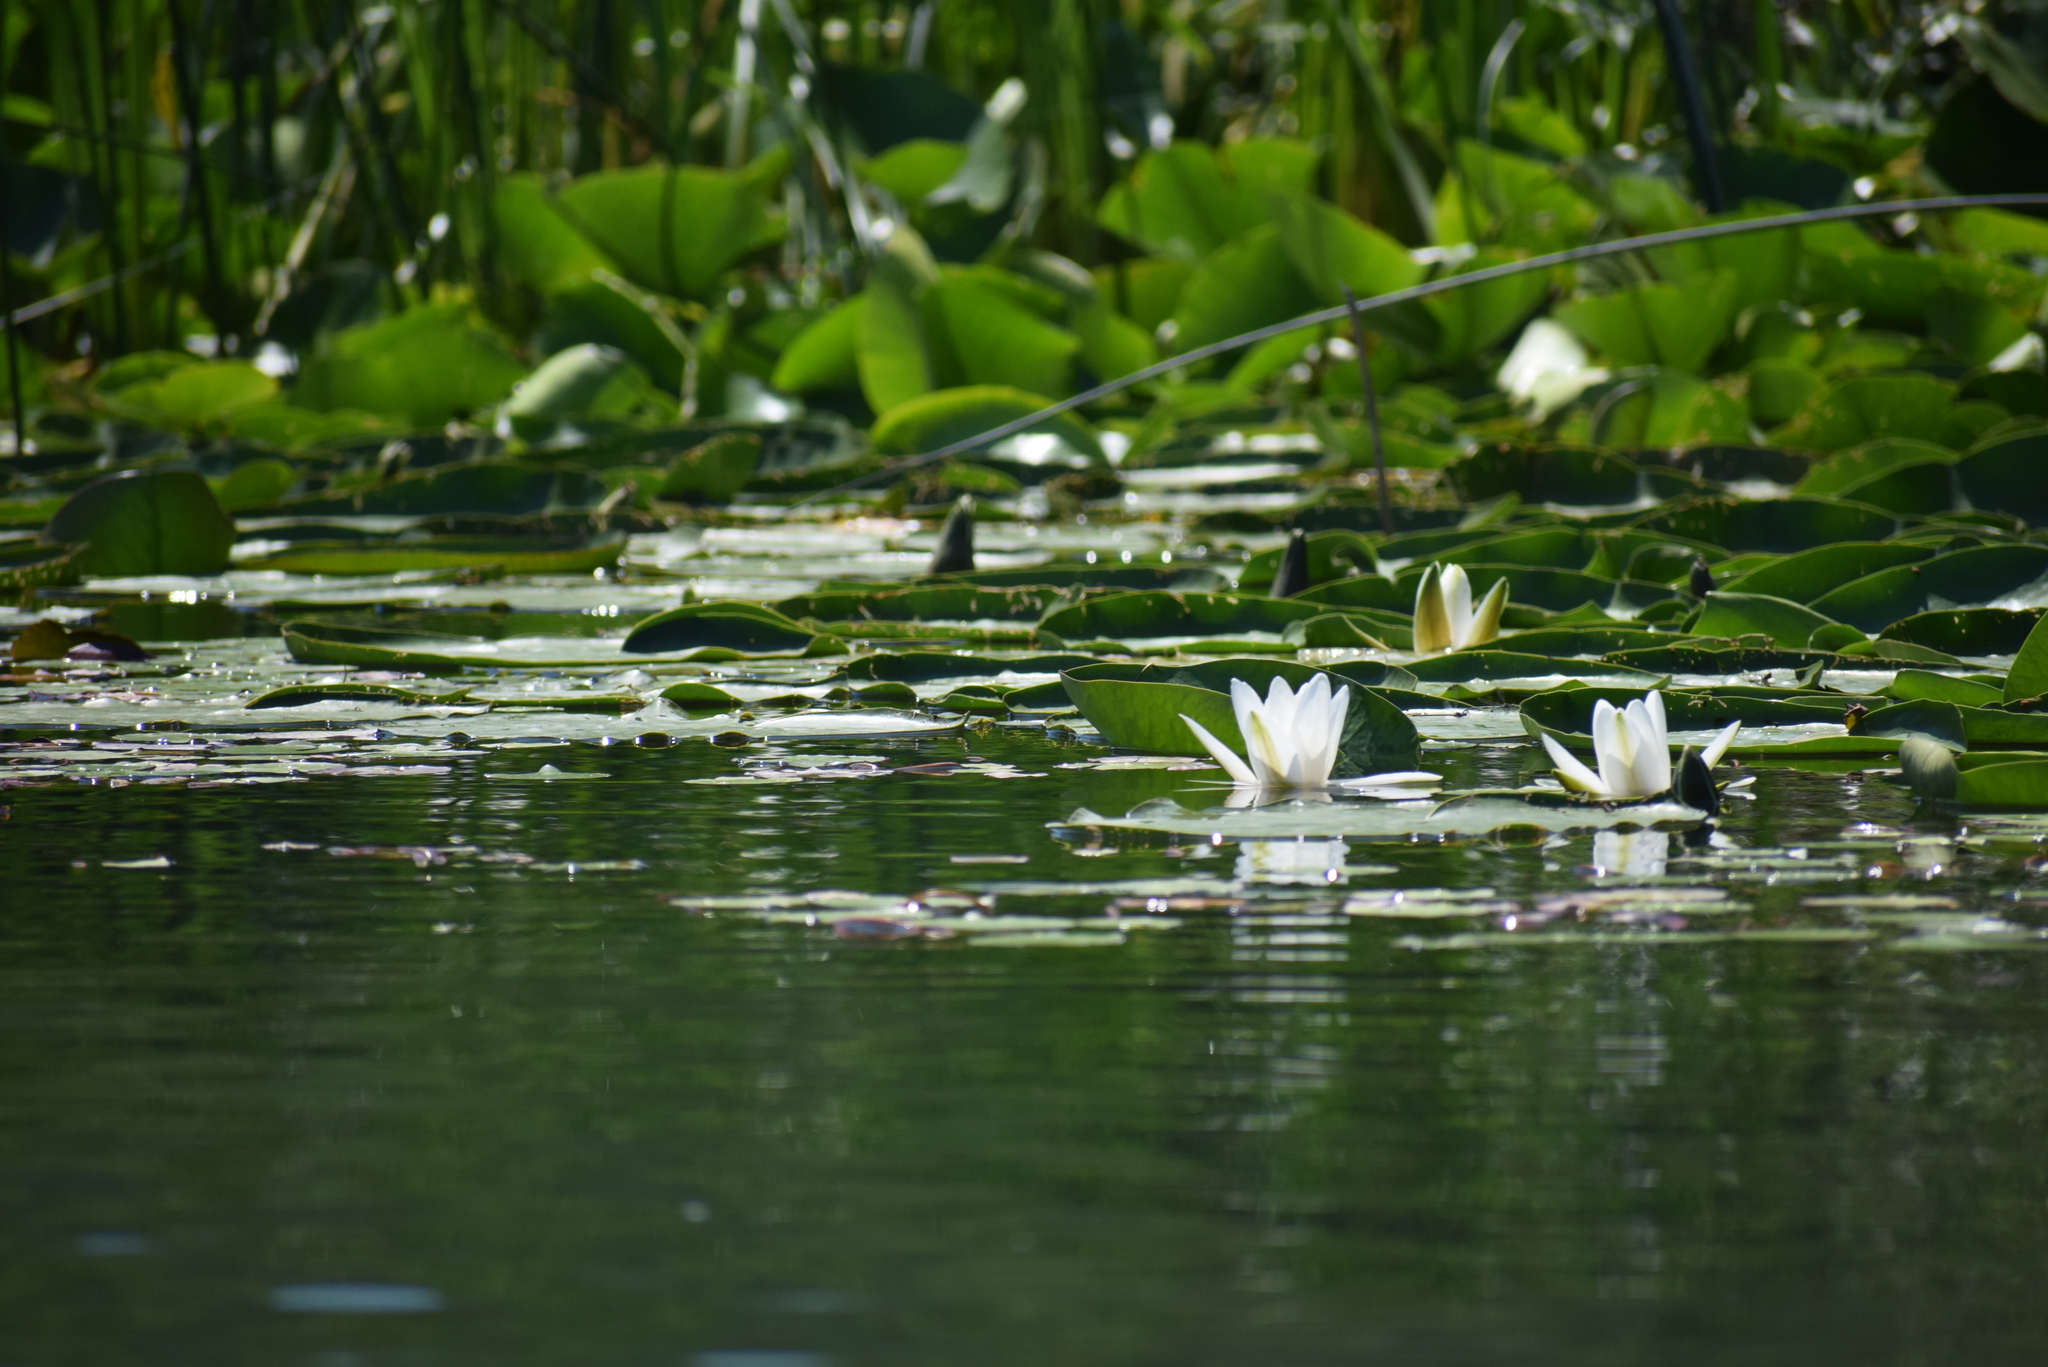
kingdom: Plantae
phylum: Tracheophyta
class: Magnoliopsida
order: Nymphaeales
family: Nymphaeaceae
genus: Nymphaea
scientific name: Nymphaea alba
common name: White water-lily
